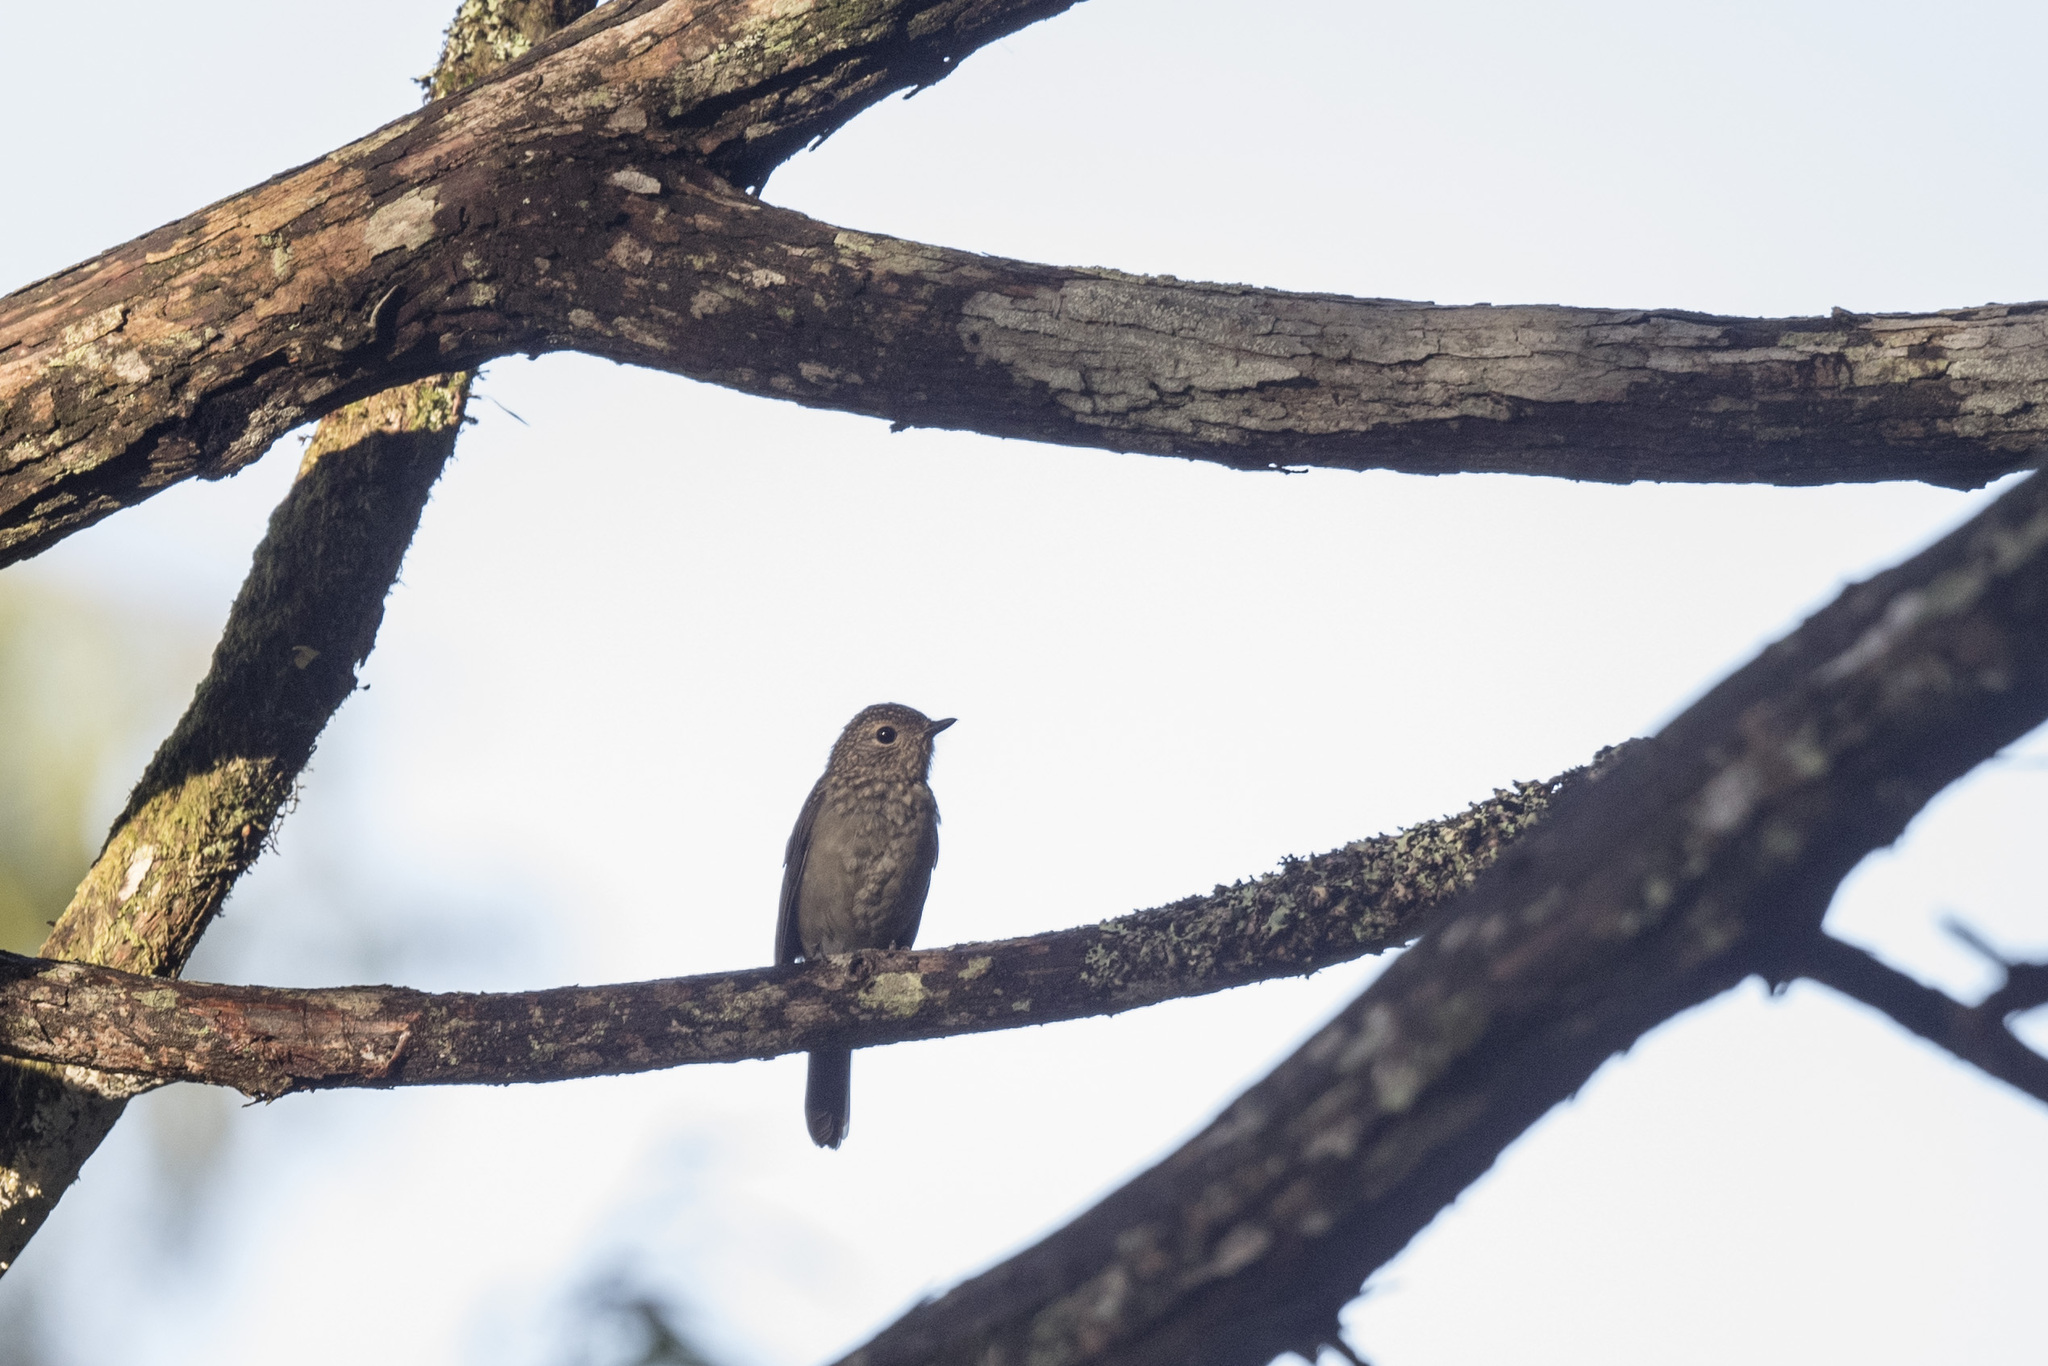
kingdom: Animalia
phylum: Chordata
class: Aves
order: Passeriformes
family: Muscicapidae
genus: Niltava
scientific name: Niltava vivida
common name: Vivid niltava
